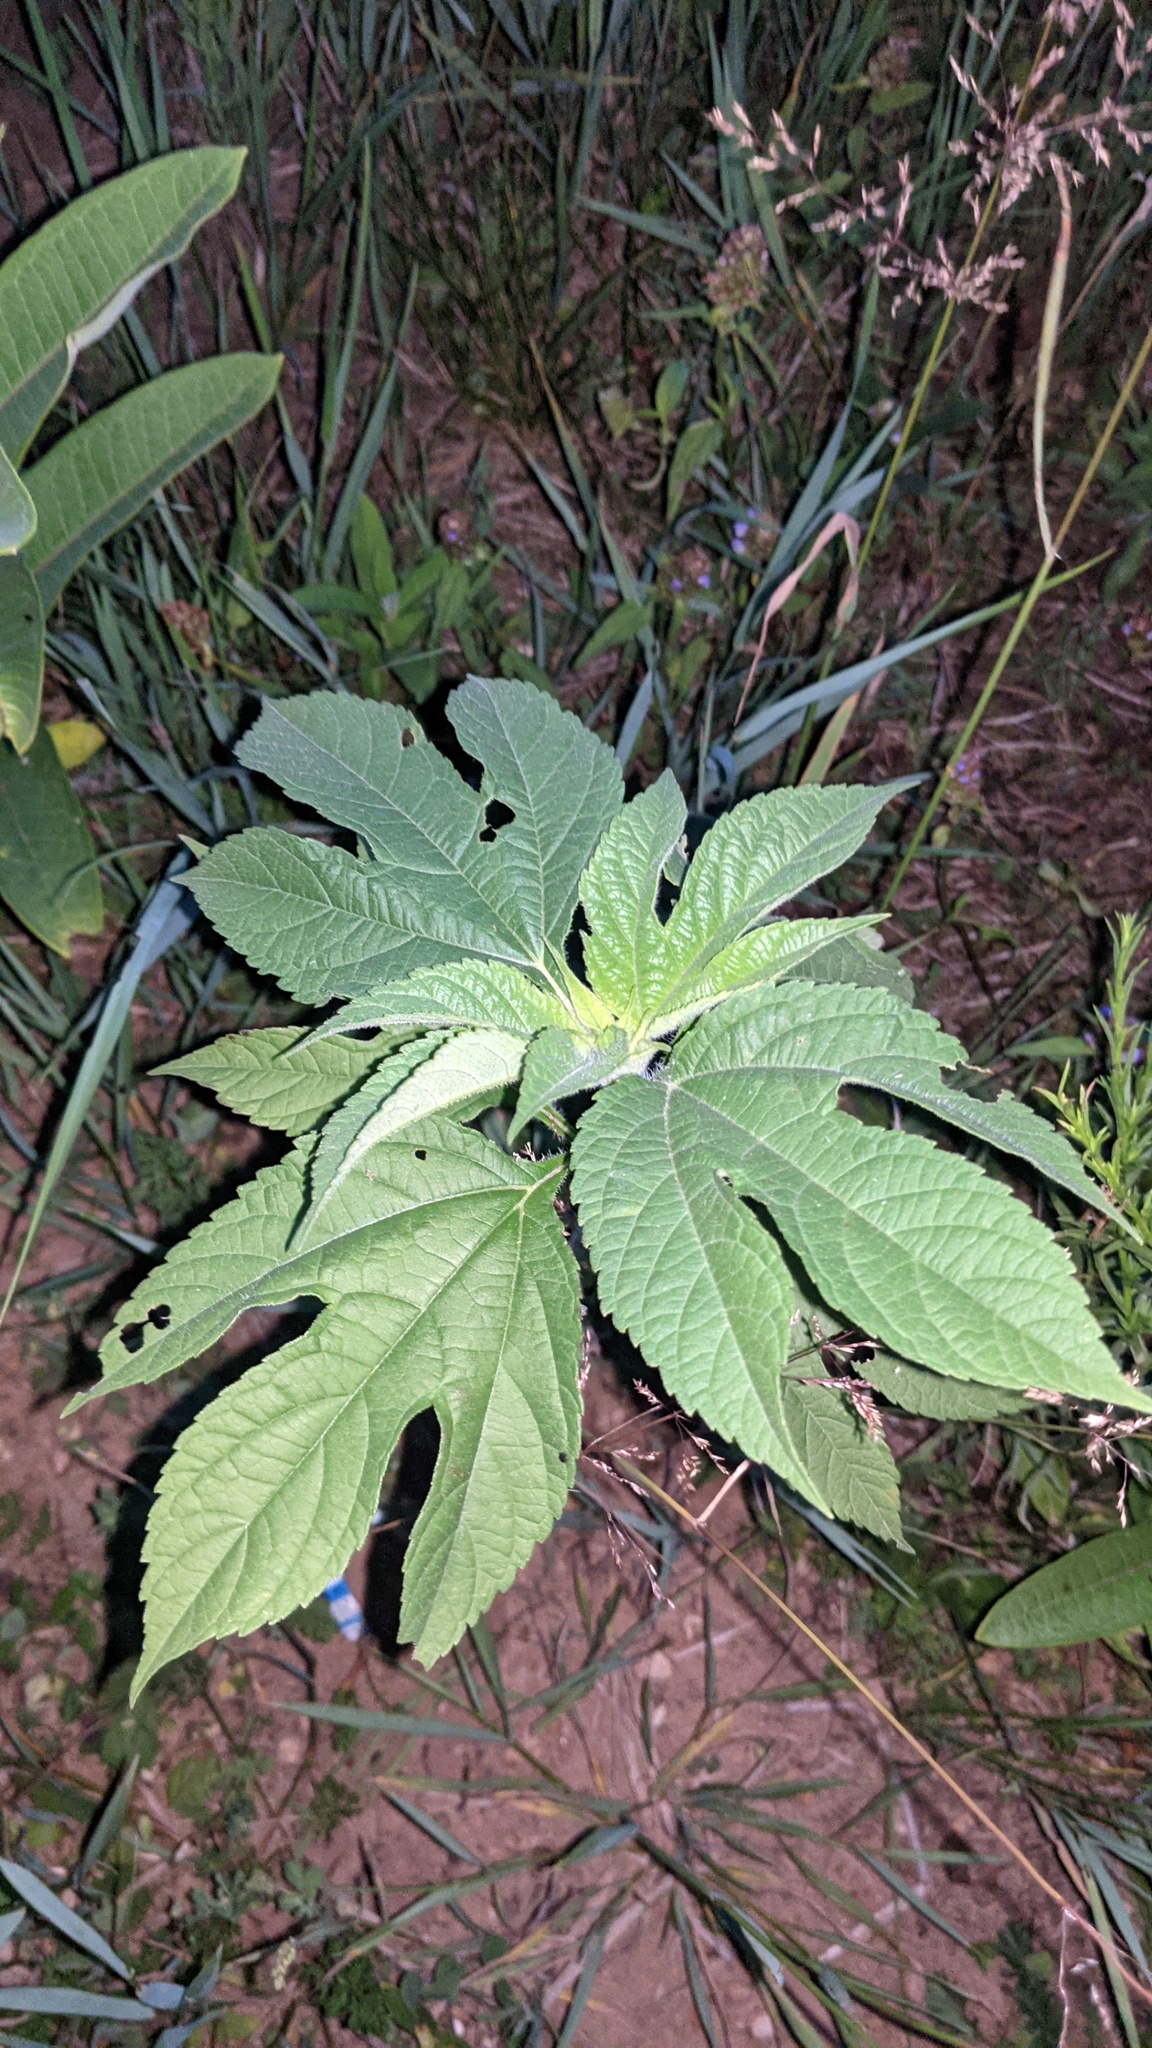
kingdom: Plantae
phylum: Tracheophyta
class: Magnoliopsida
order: Asterales
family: Asteraceae
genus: Ambrosia
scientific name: Ambrosia trifida
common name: Giant ragweed
